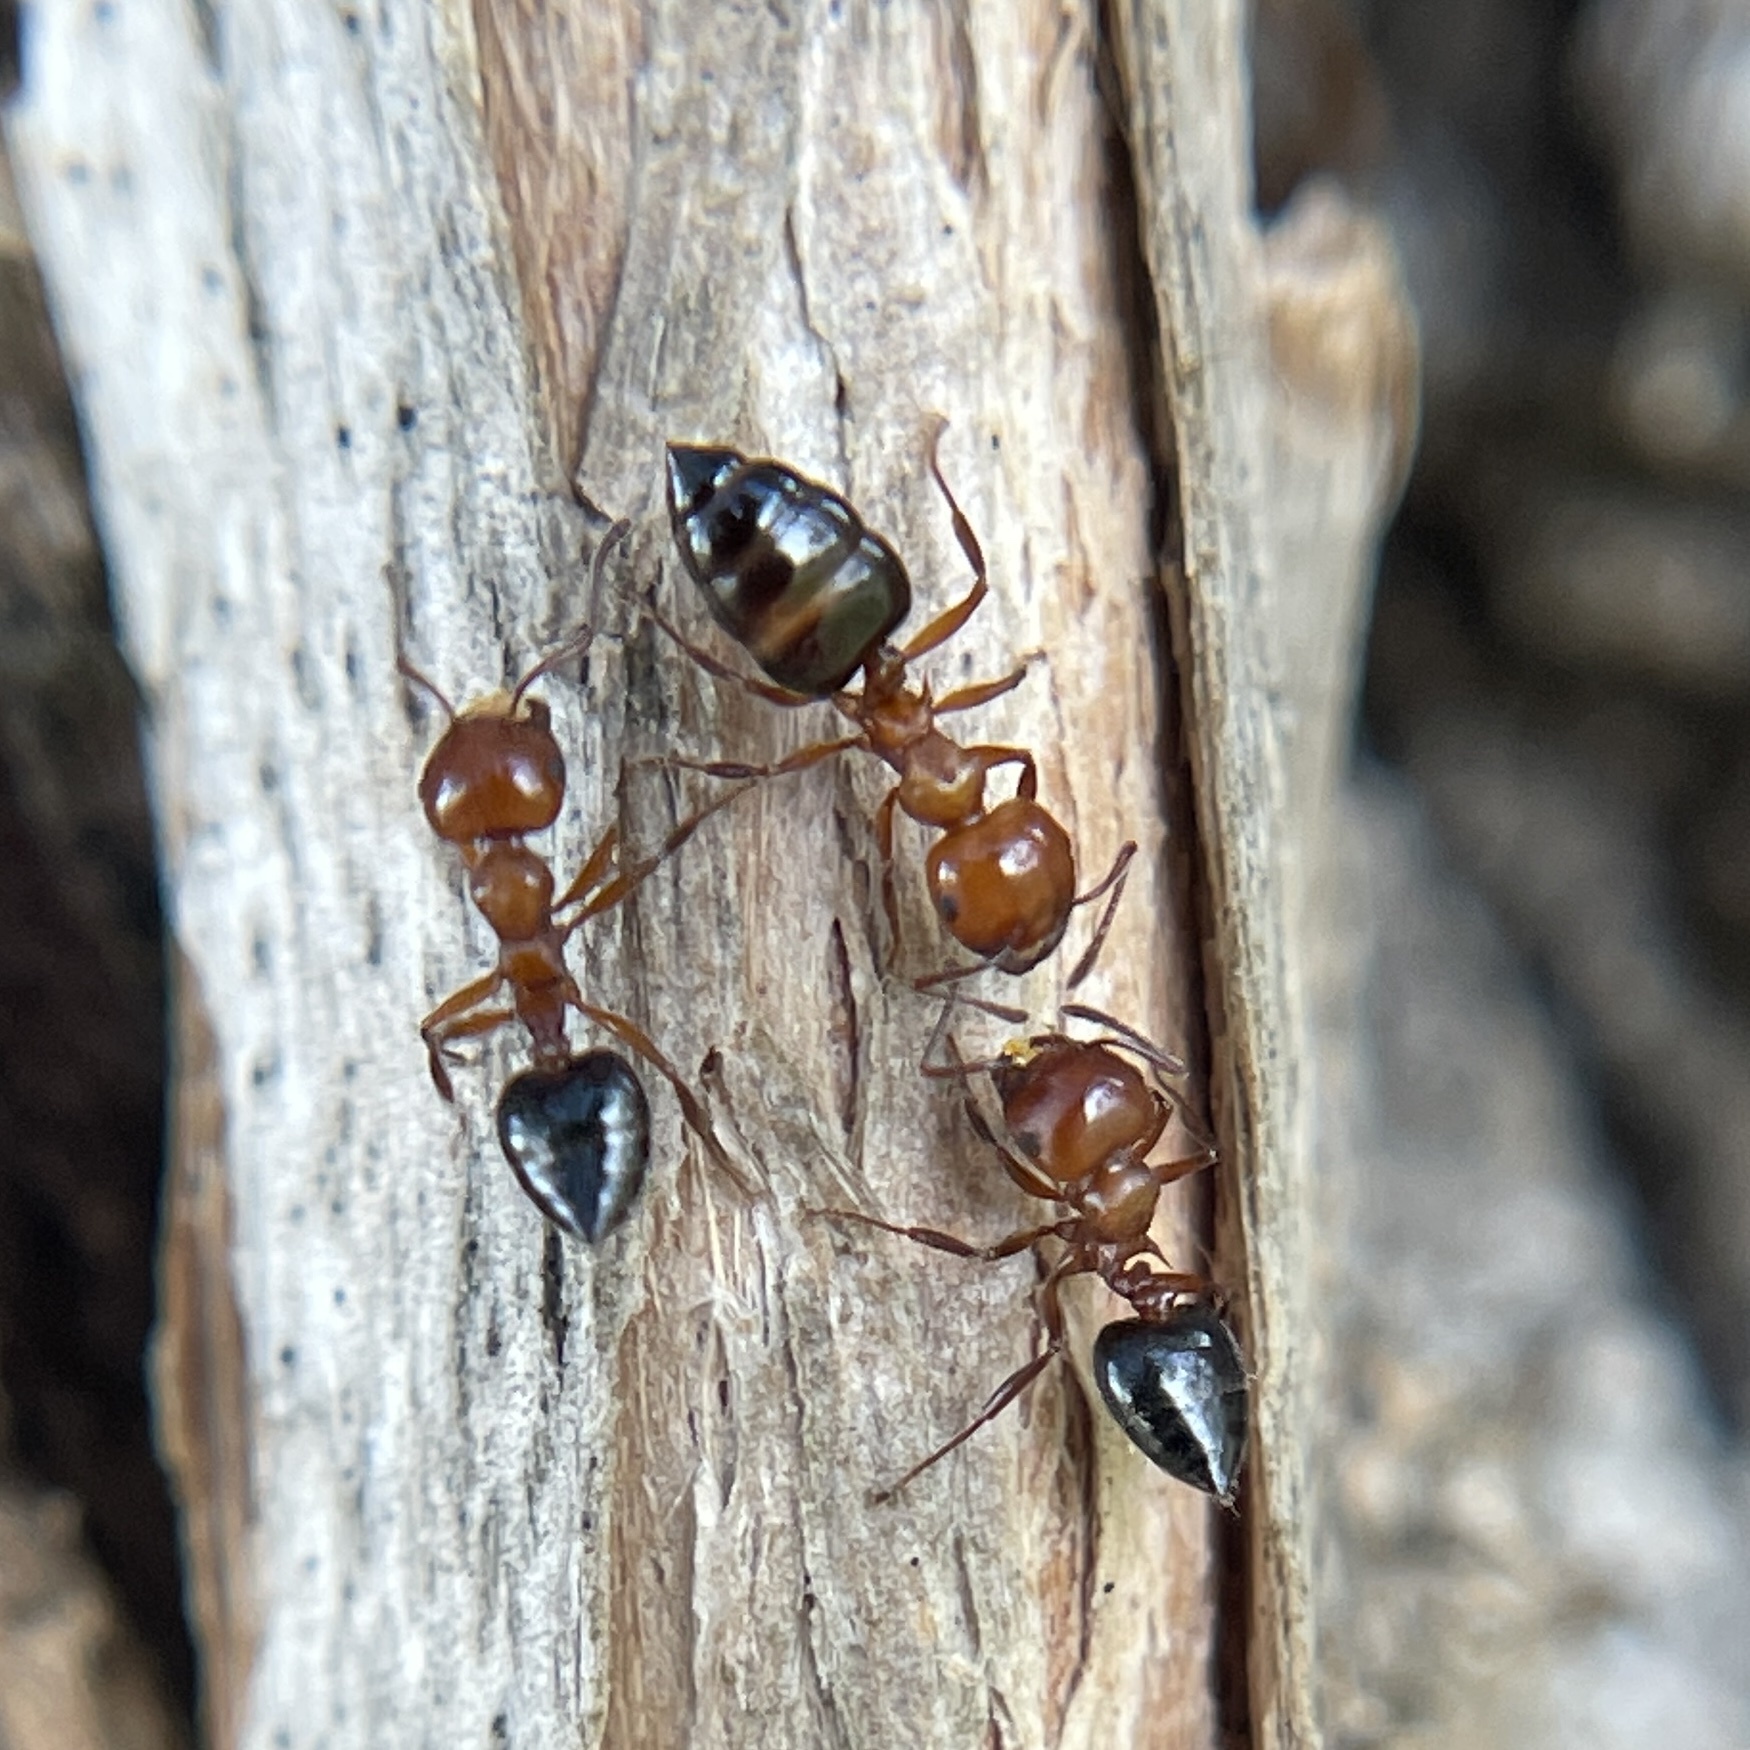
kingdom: Animalia
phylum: Arthropoda
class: Insecta
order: Hymenoptera
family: Formicidae
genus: Crematogaster
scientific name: Crematogaster laeviuscula
